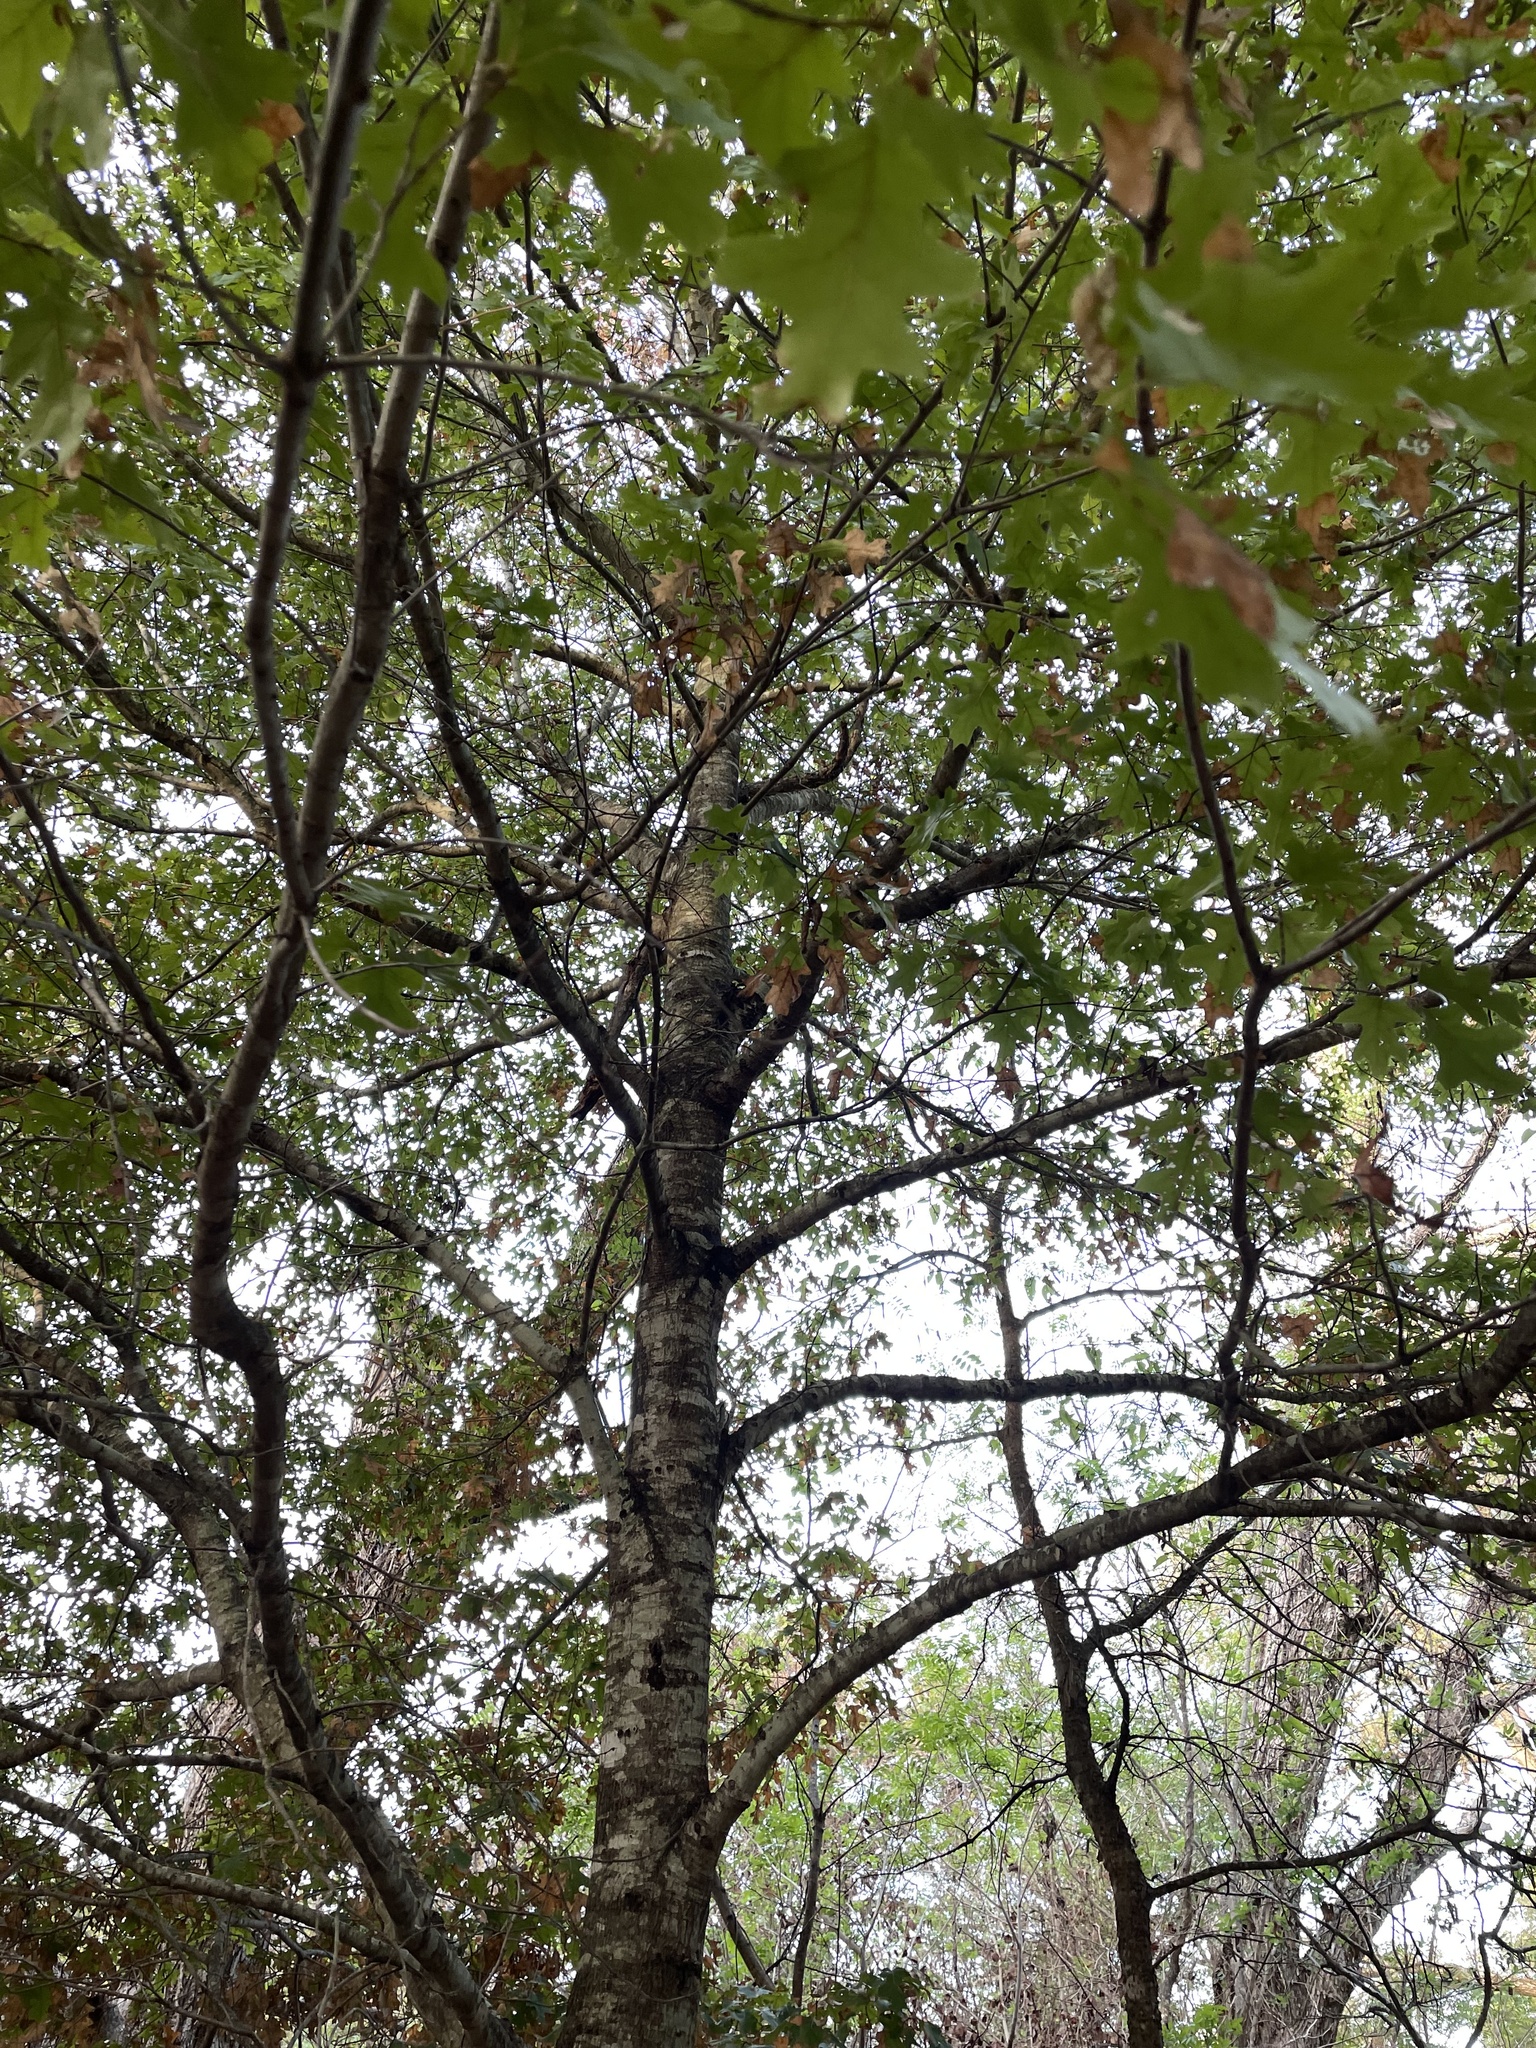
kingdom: Plantae
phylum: Tracheophyta
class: Magnoliopsida
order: Fagales
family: Fagaceae
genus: Quercus
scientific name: Quercus buckleyi
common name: Buckley oak
